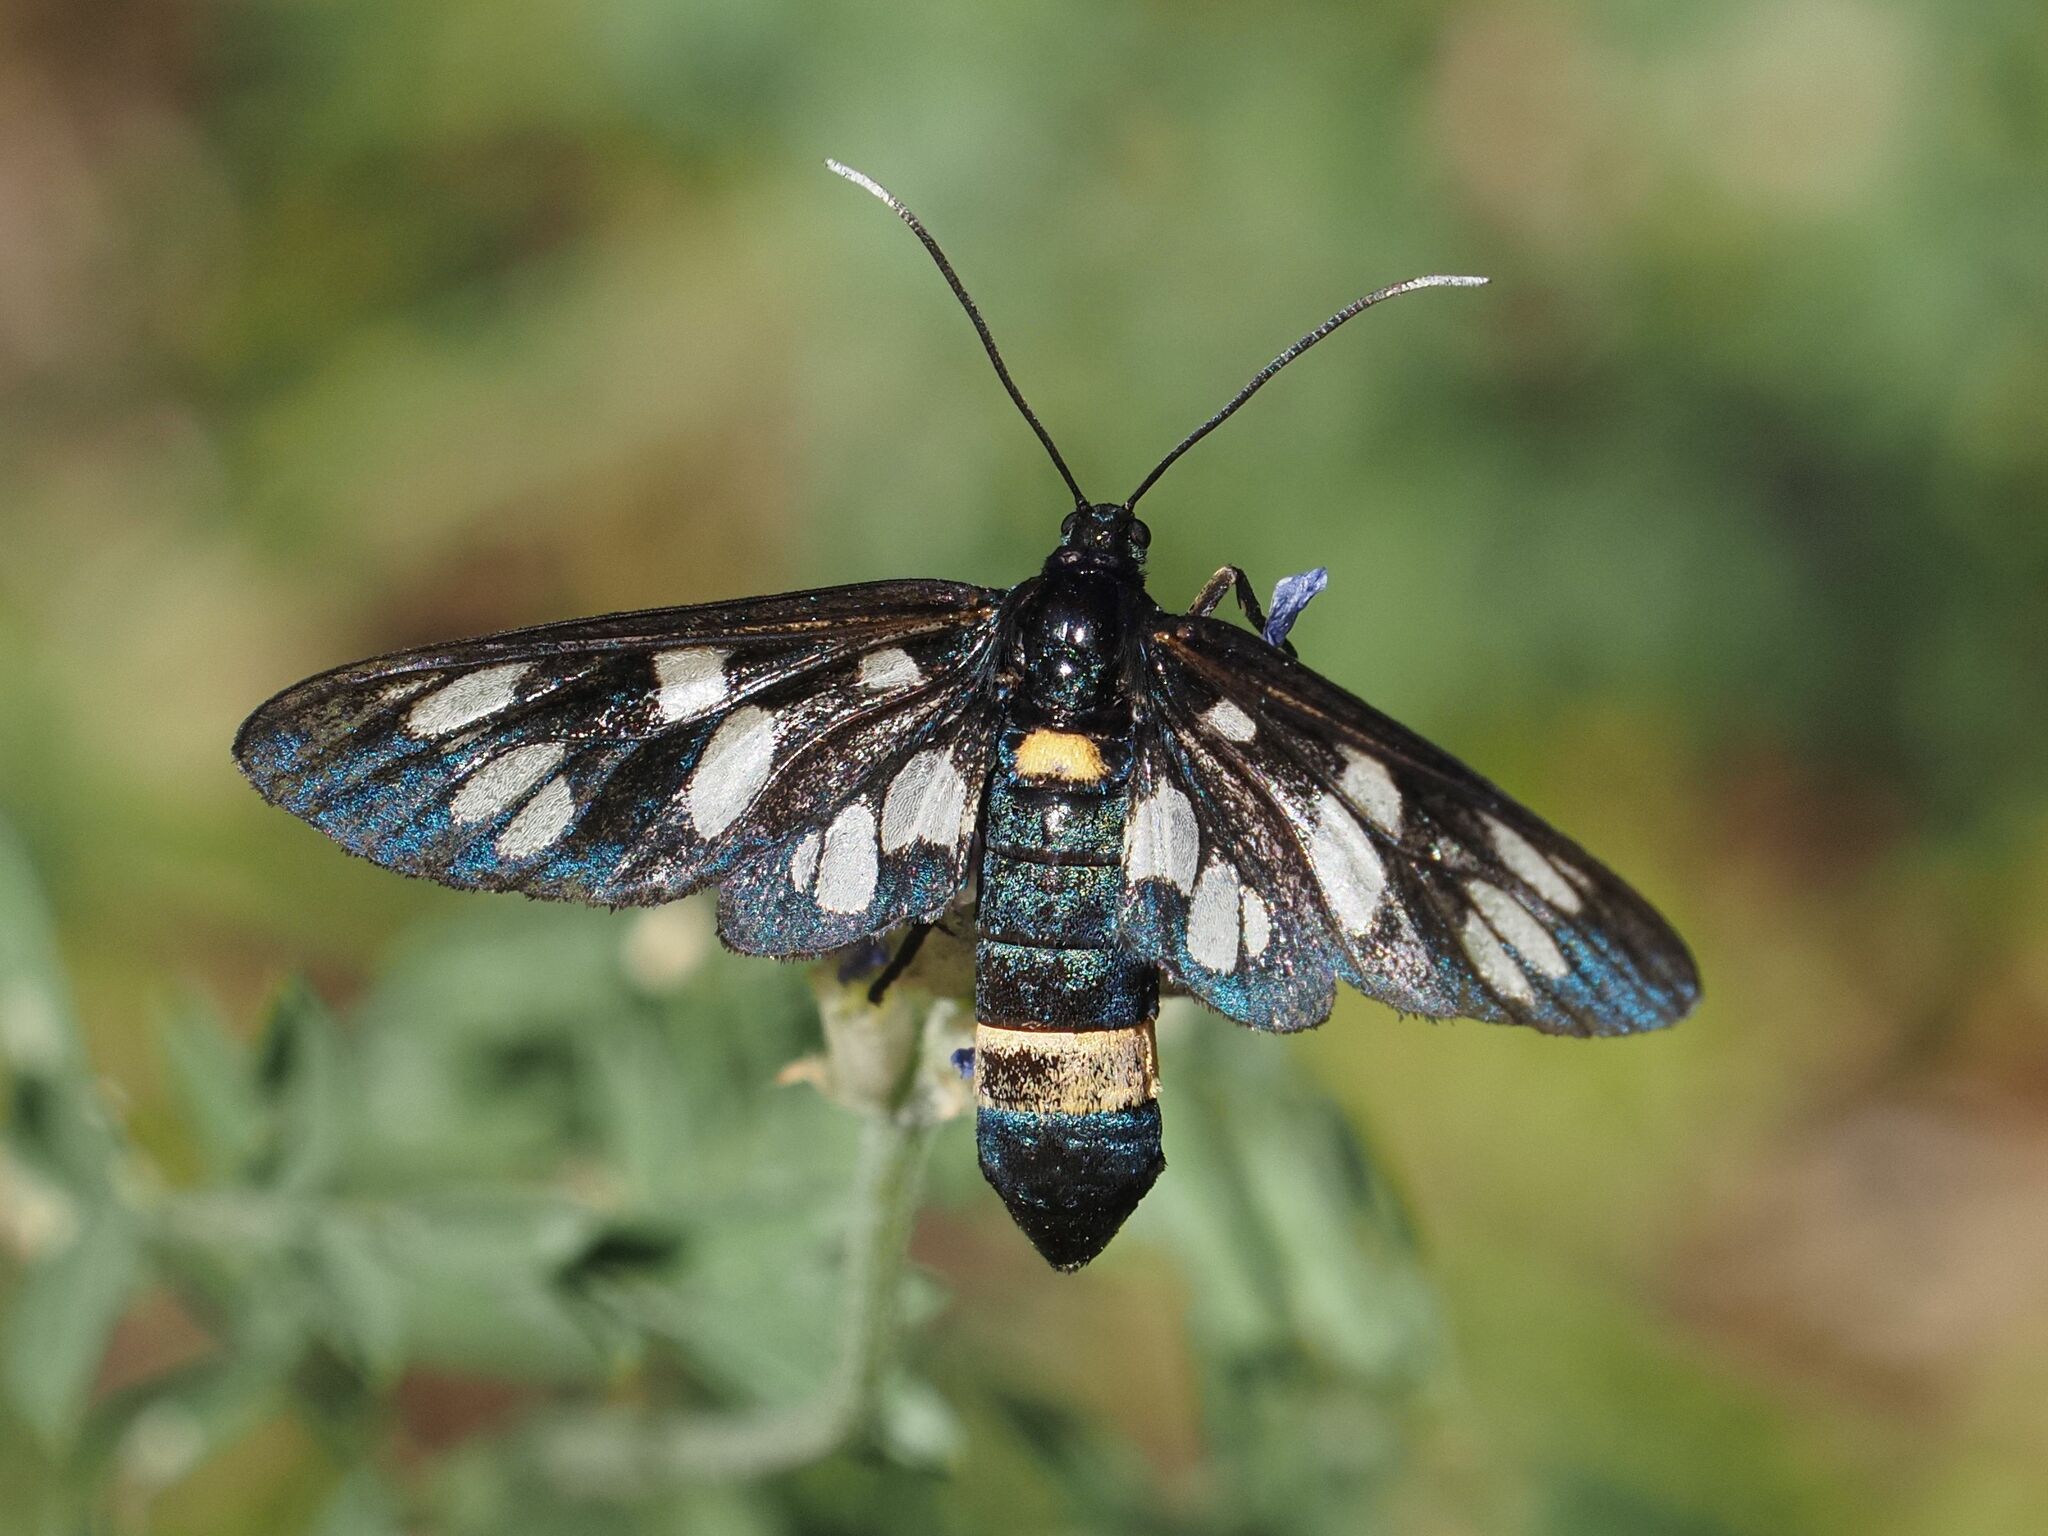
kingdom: Animalia
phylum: Arthropoda
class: Insecta
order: Lepidoptera
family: Erebidae
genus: Amata
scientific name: Amata phegea
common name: Nine-spotted
